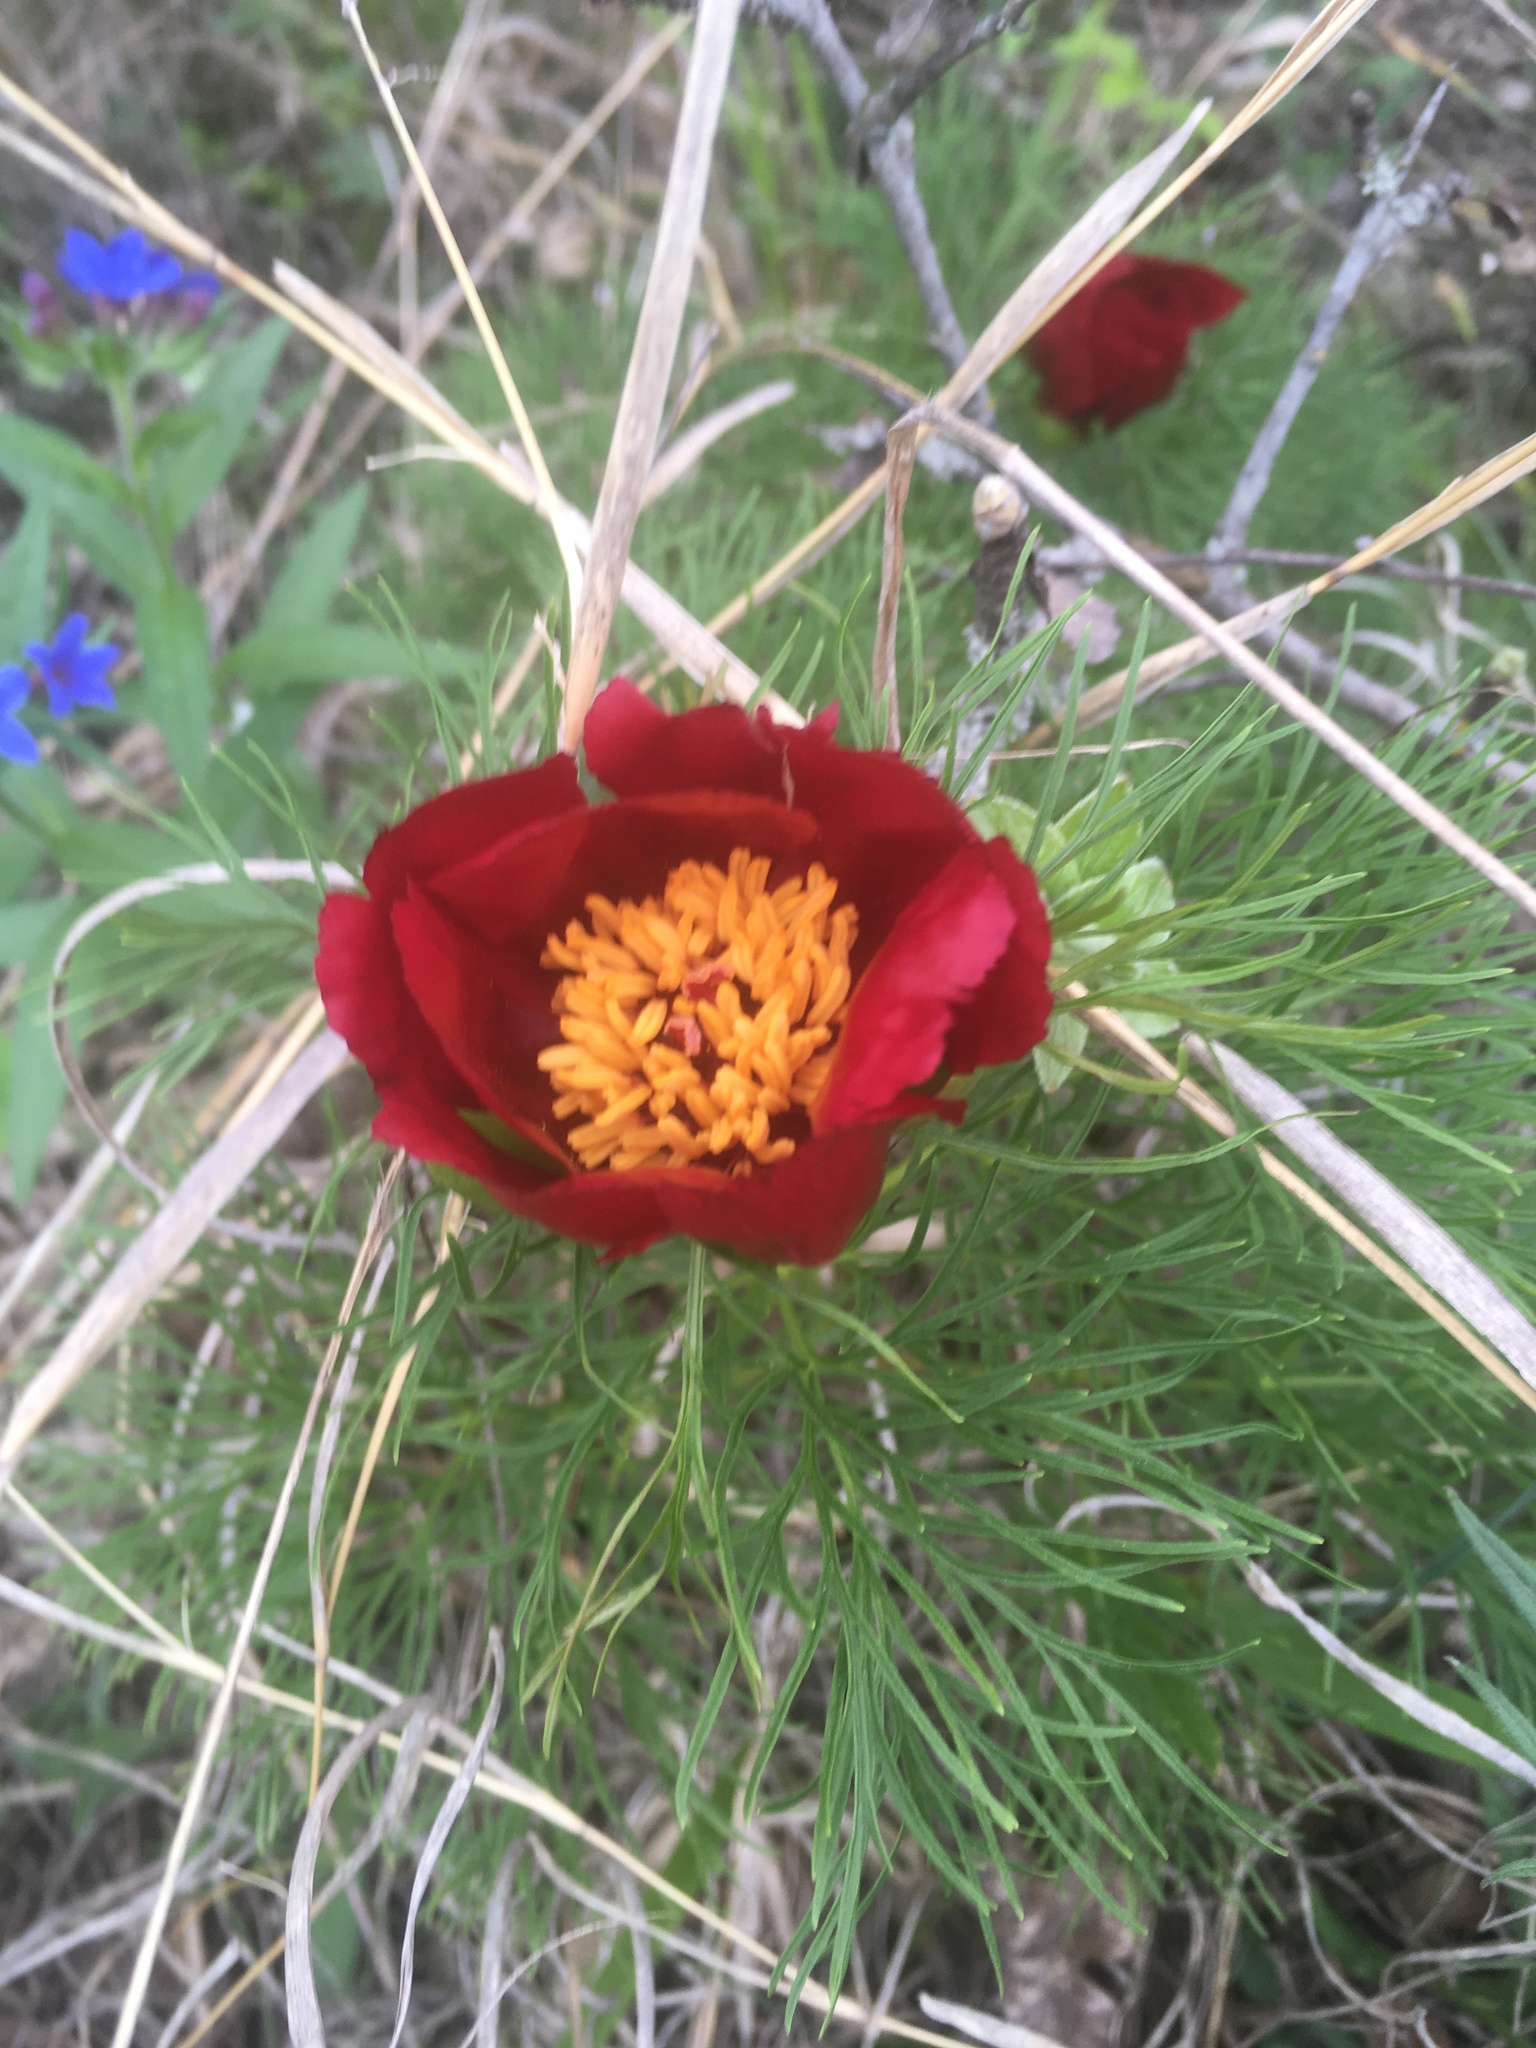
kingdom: Plantae
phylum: Tracheophyta
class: Magnoliopsida
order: Saxifragales
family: Paeoniaceae
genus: Paeonia
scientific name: Paeonia tenuifolia
